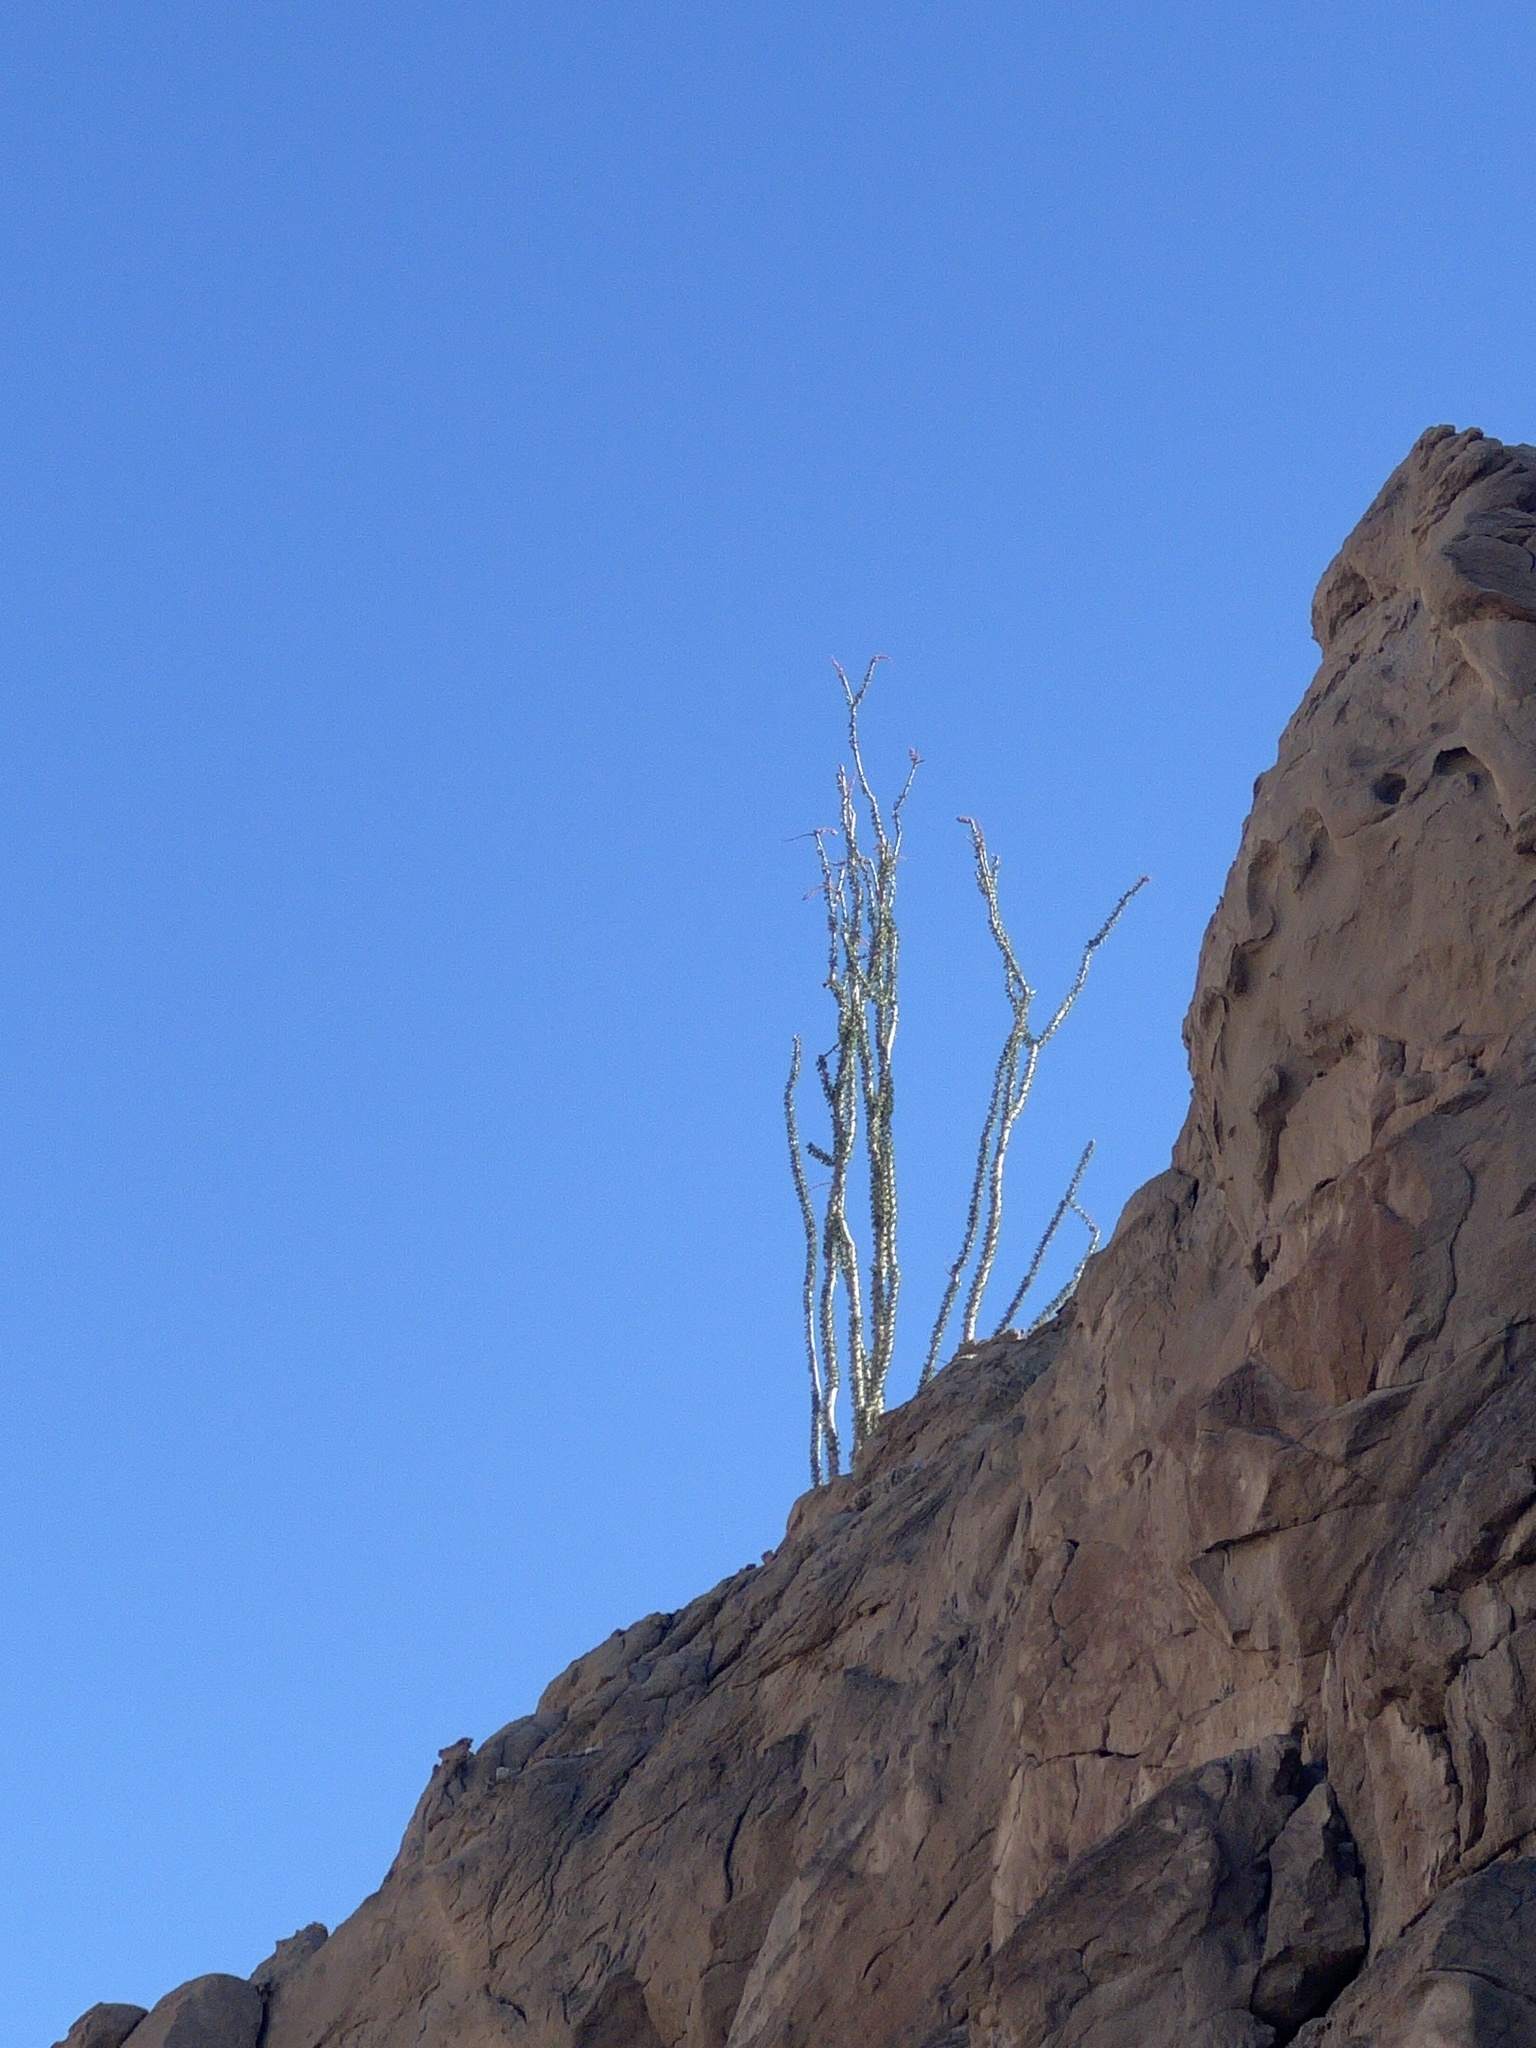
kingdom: Plantae
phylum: Tracheophyta
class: Magnoliopsida
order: Ericales
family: Fouquieriaceae
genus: Fouquieria
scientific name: Fouquieria splendens
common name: Vine-cactus
